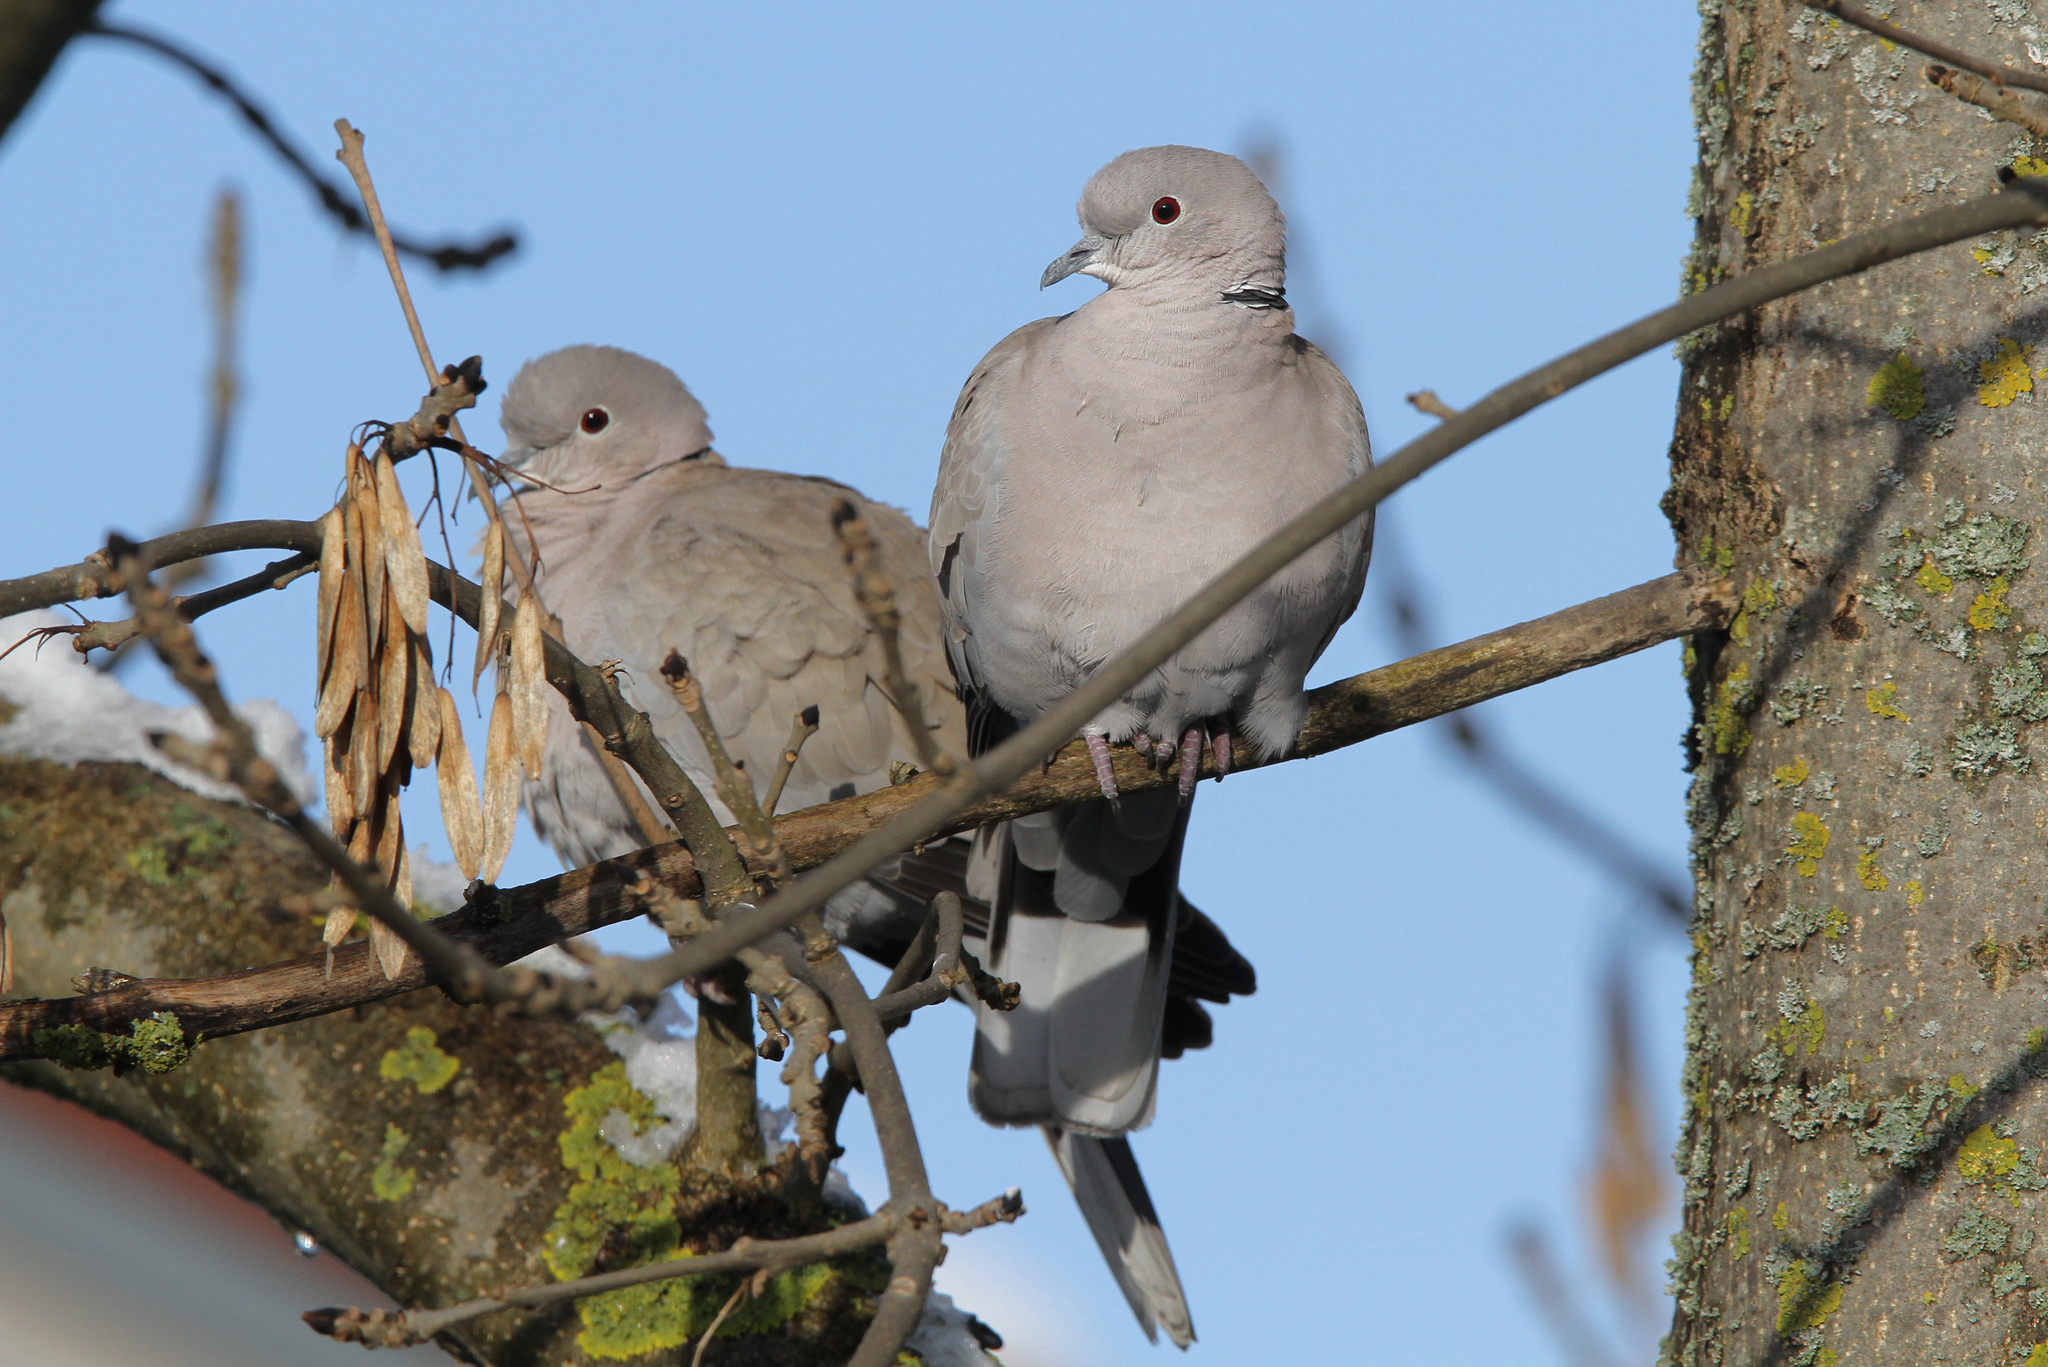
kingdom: Animalia
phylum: Chordata
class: Aves
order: Columbiformes
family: Columbidae
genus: Streptopelia
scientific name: Streptopelia decaocto
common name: Eurasian collared dove
